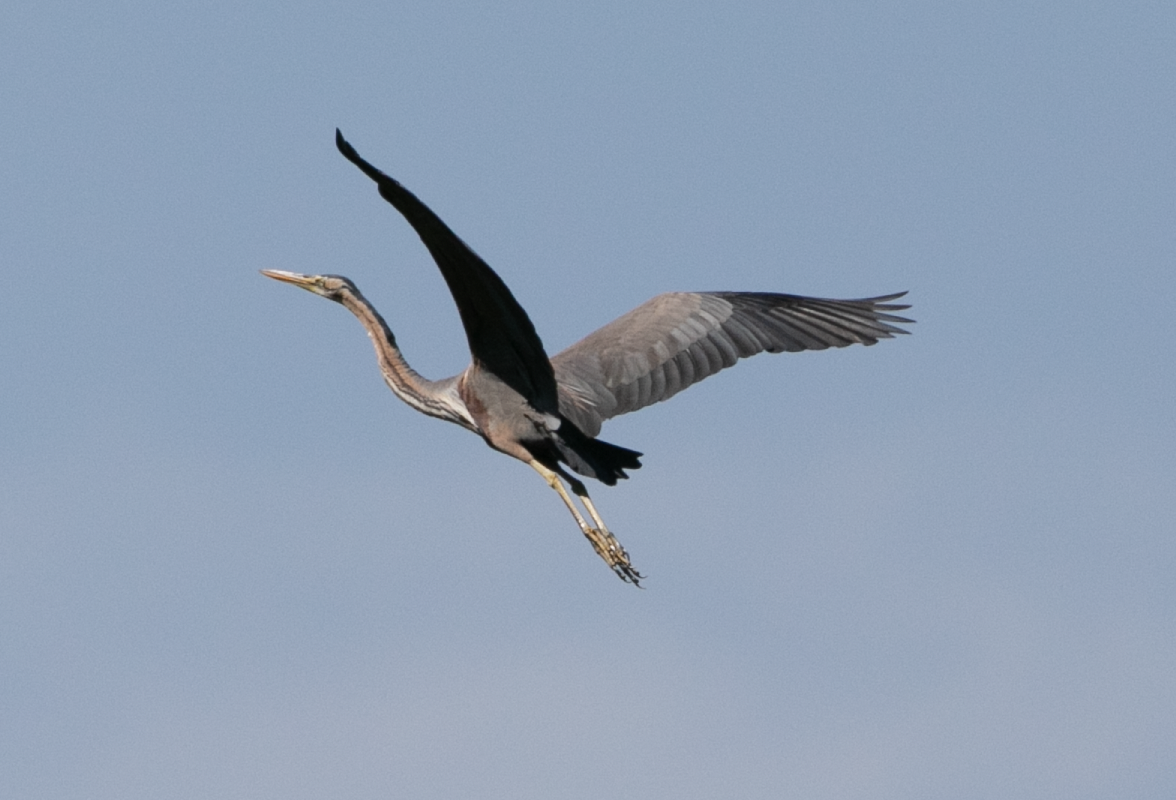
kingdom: Animalia
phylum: Chordata
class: Aves
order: Pelecaniformes
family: Ardeidae
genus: Ardea
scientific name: Ardea purpurea
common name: Purple heron
